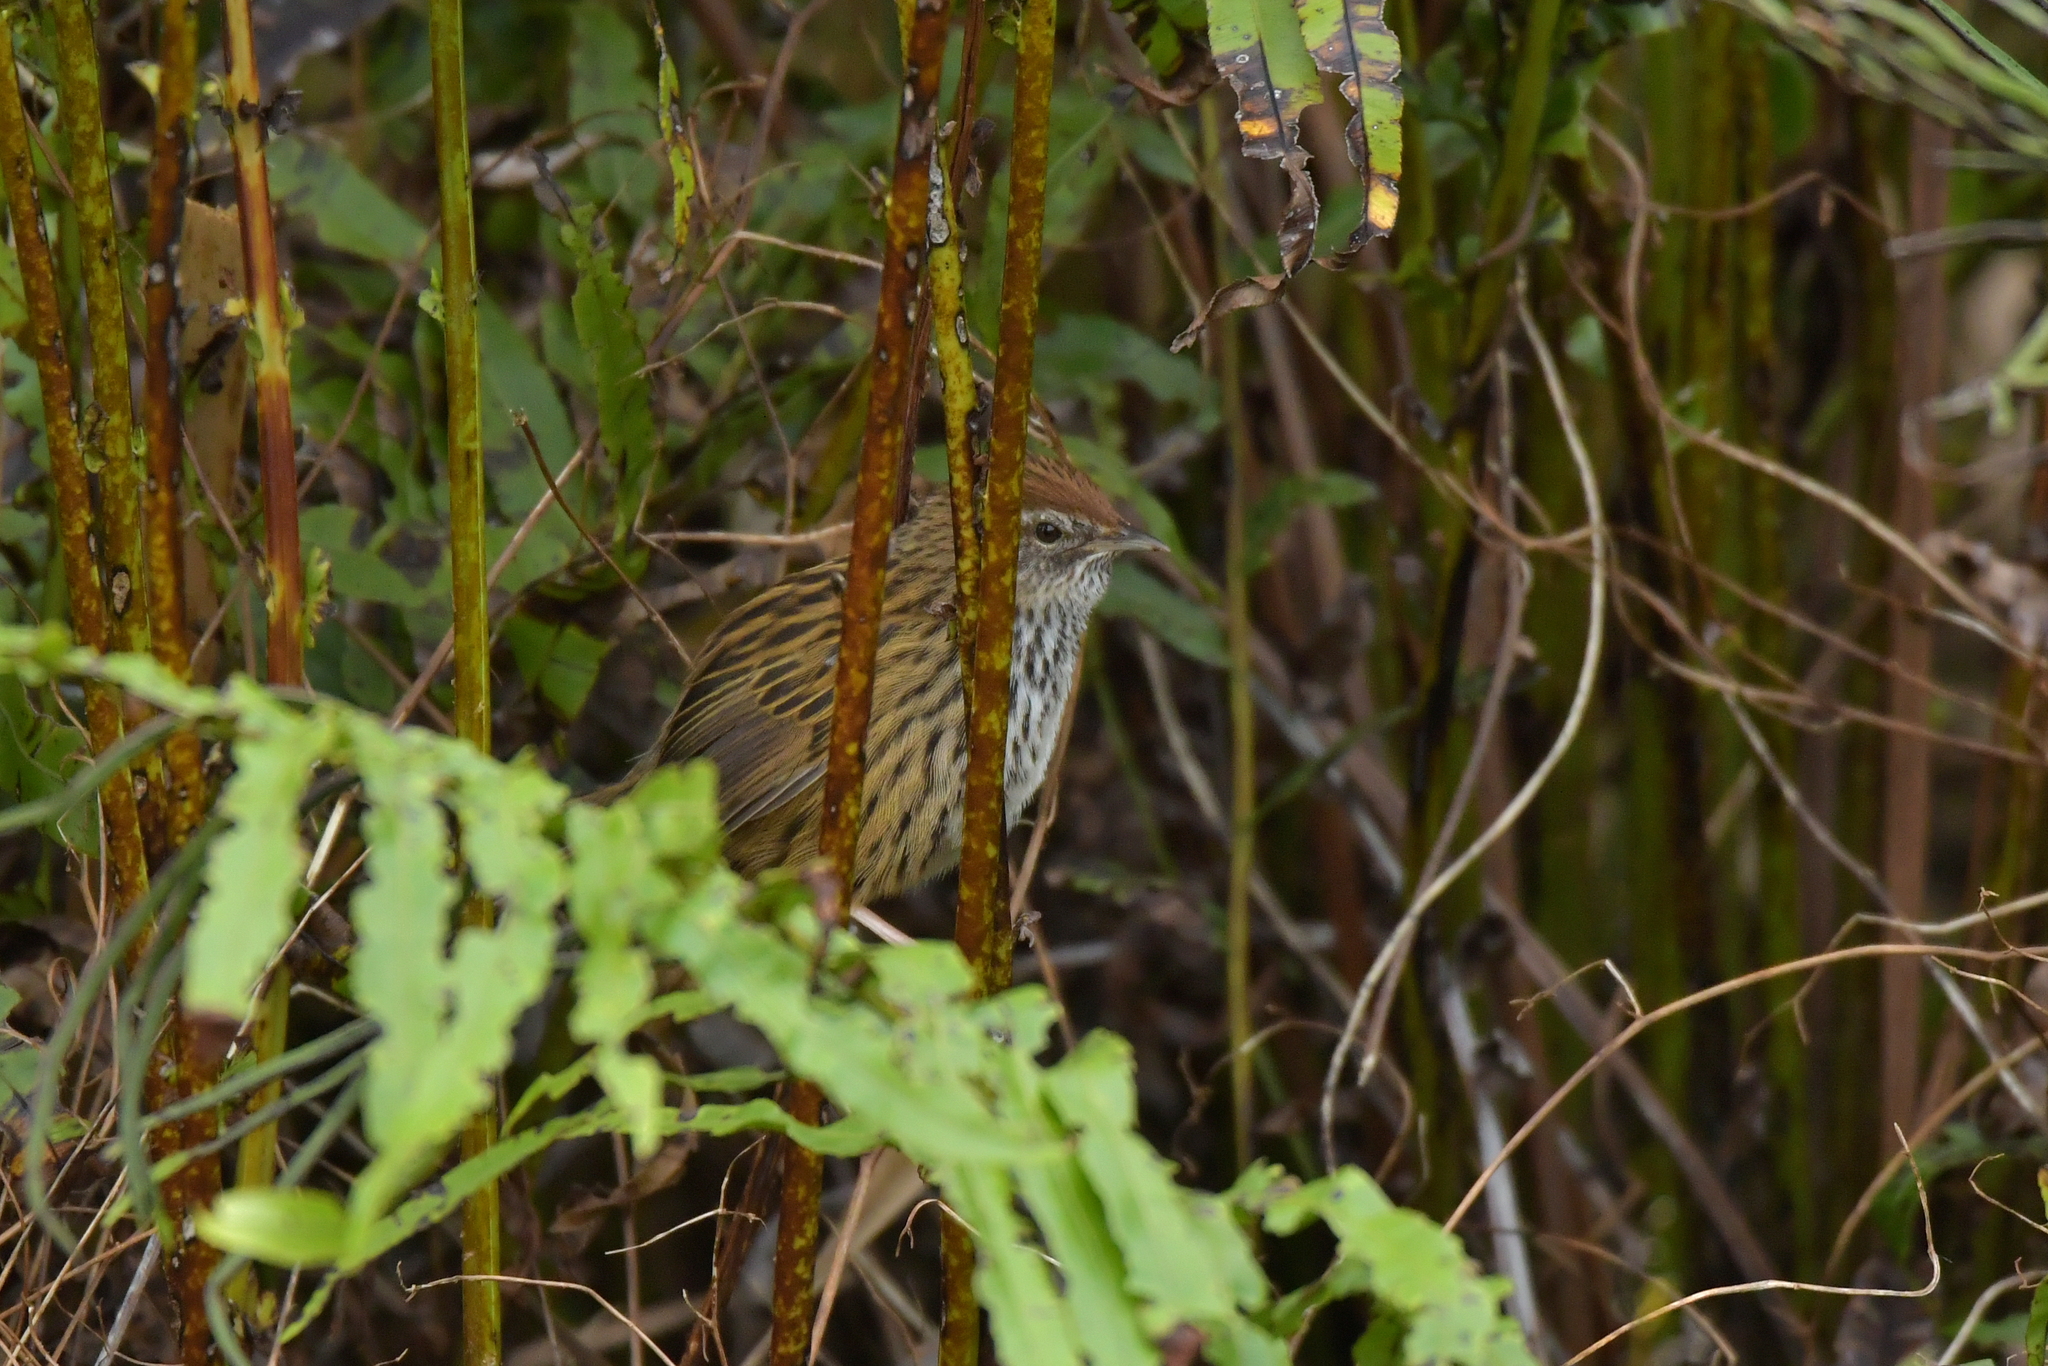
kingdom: Animalia
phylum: Chordata
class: Aves
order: Passeriformes
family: Locustellidae
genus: Megalurus
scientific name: Megalurus punctatus
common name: New zealand fernbird
